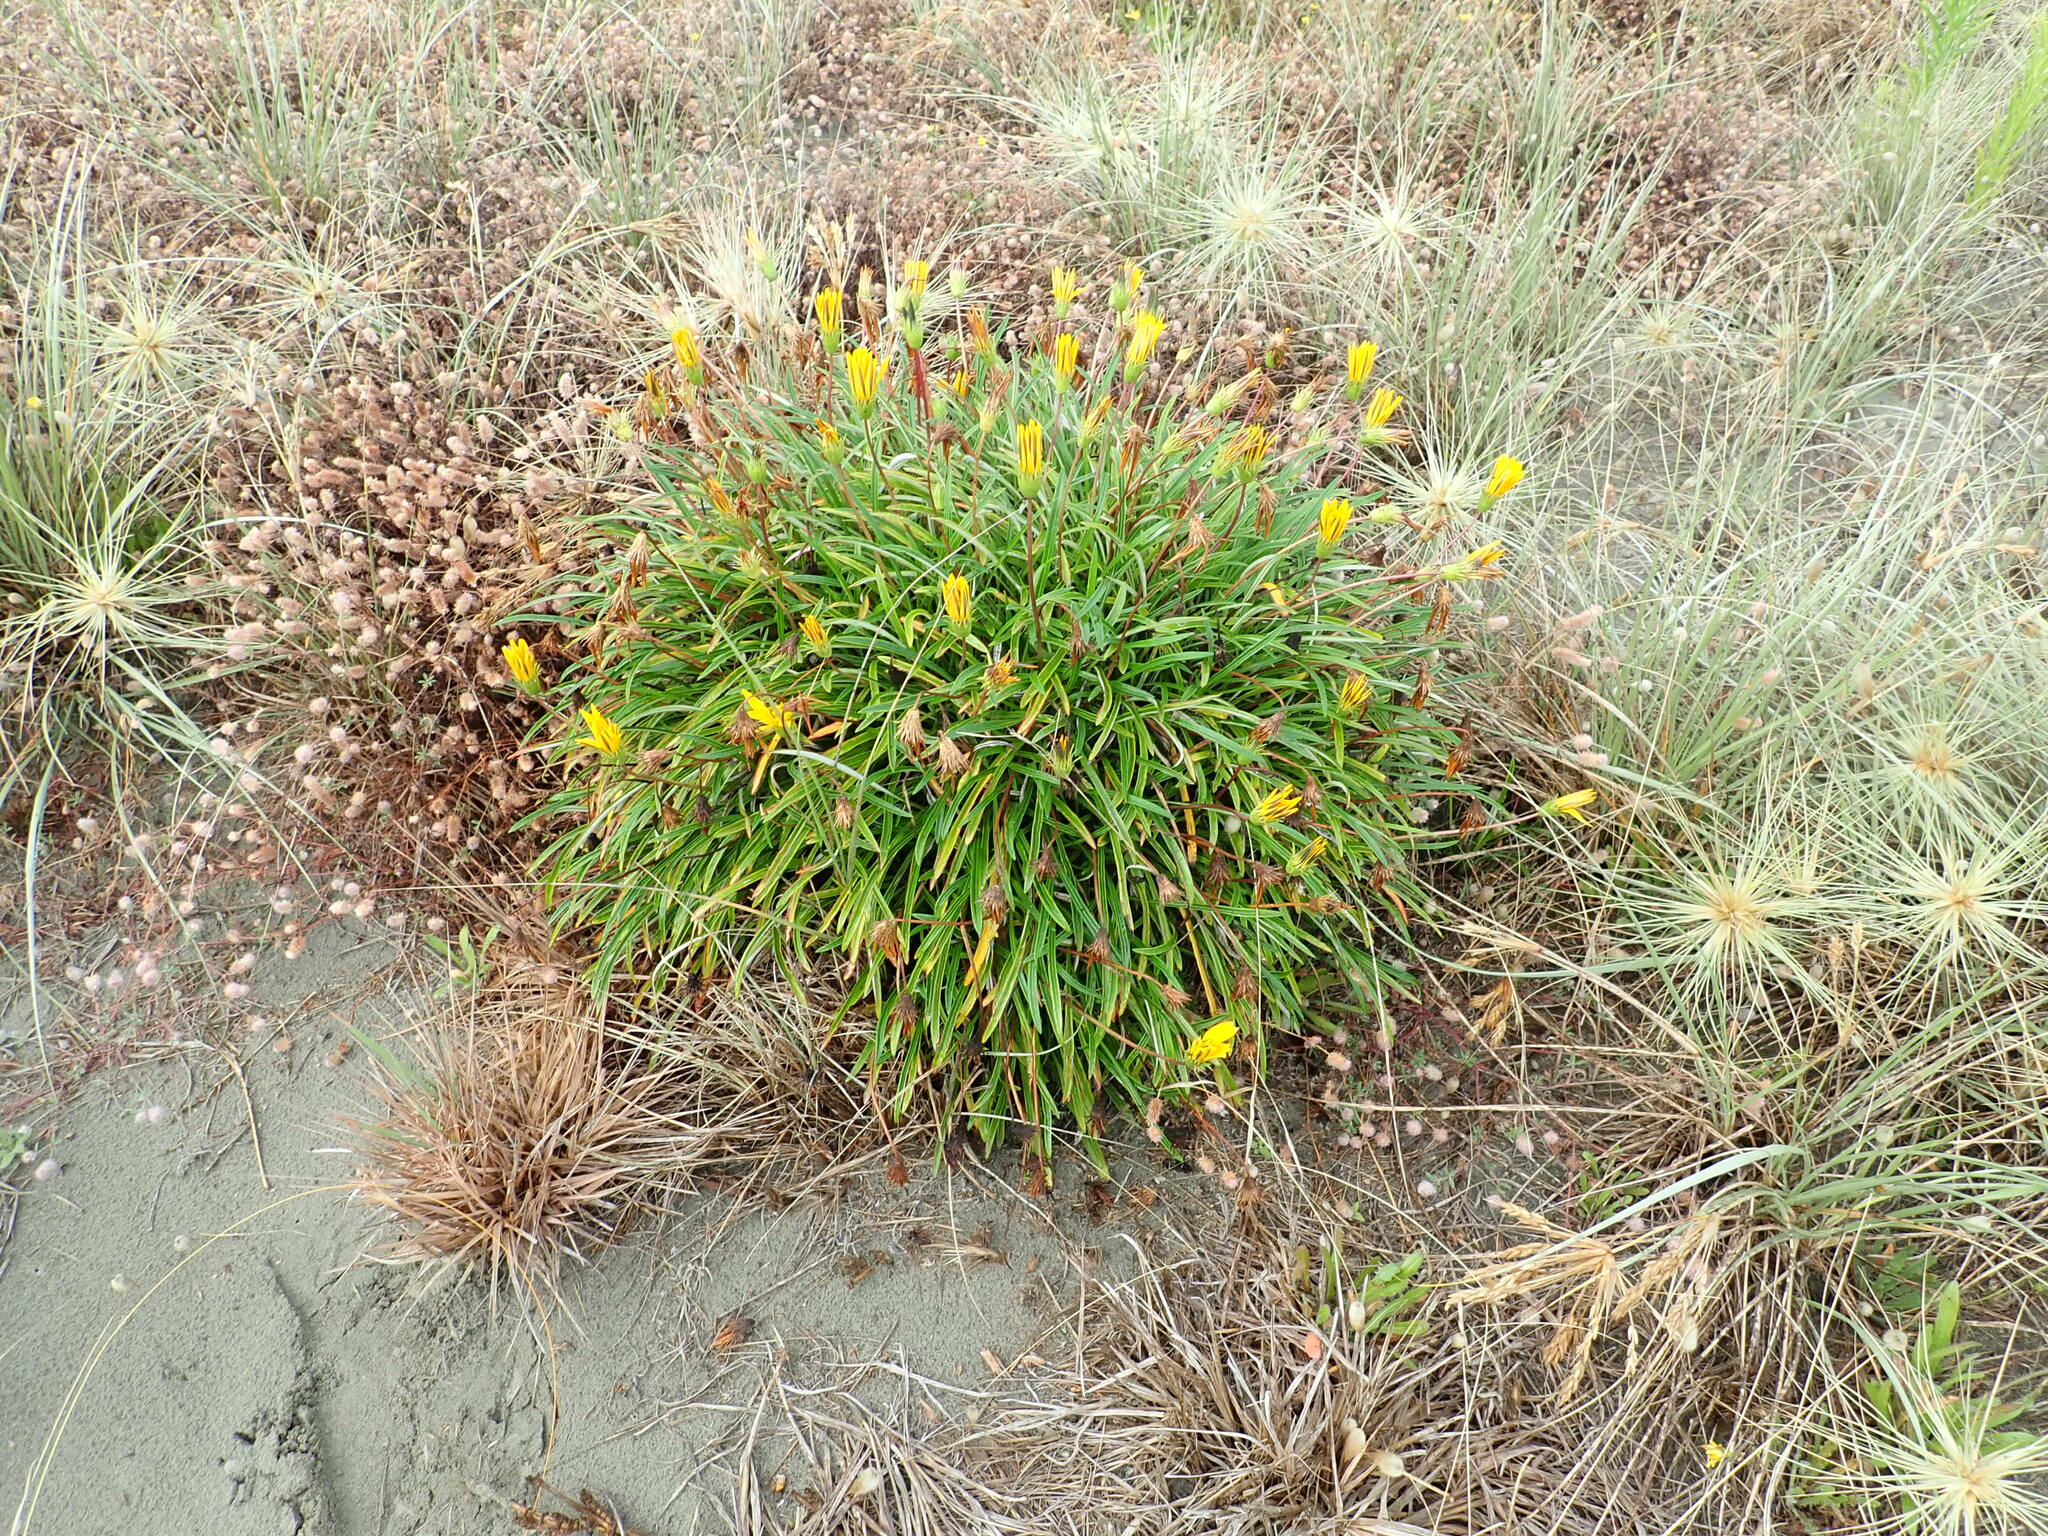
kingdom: Plantae
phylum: Tracheophyta
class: Magnoliopsida
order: Asterales
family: Asteraceae
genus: Gazania
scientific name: Gazania splendens
